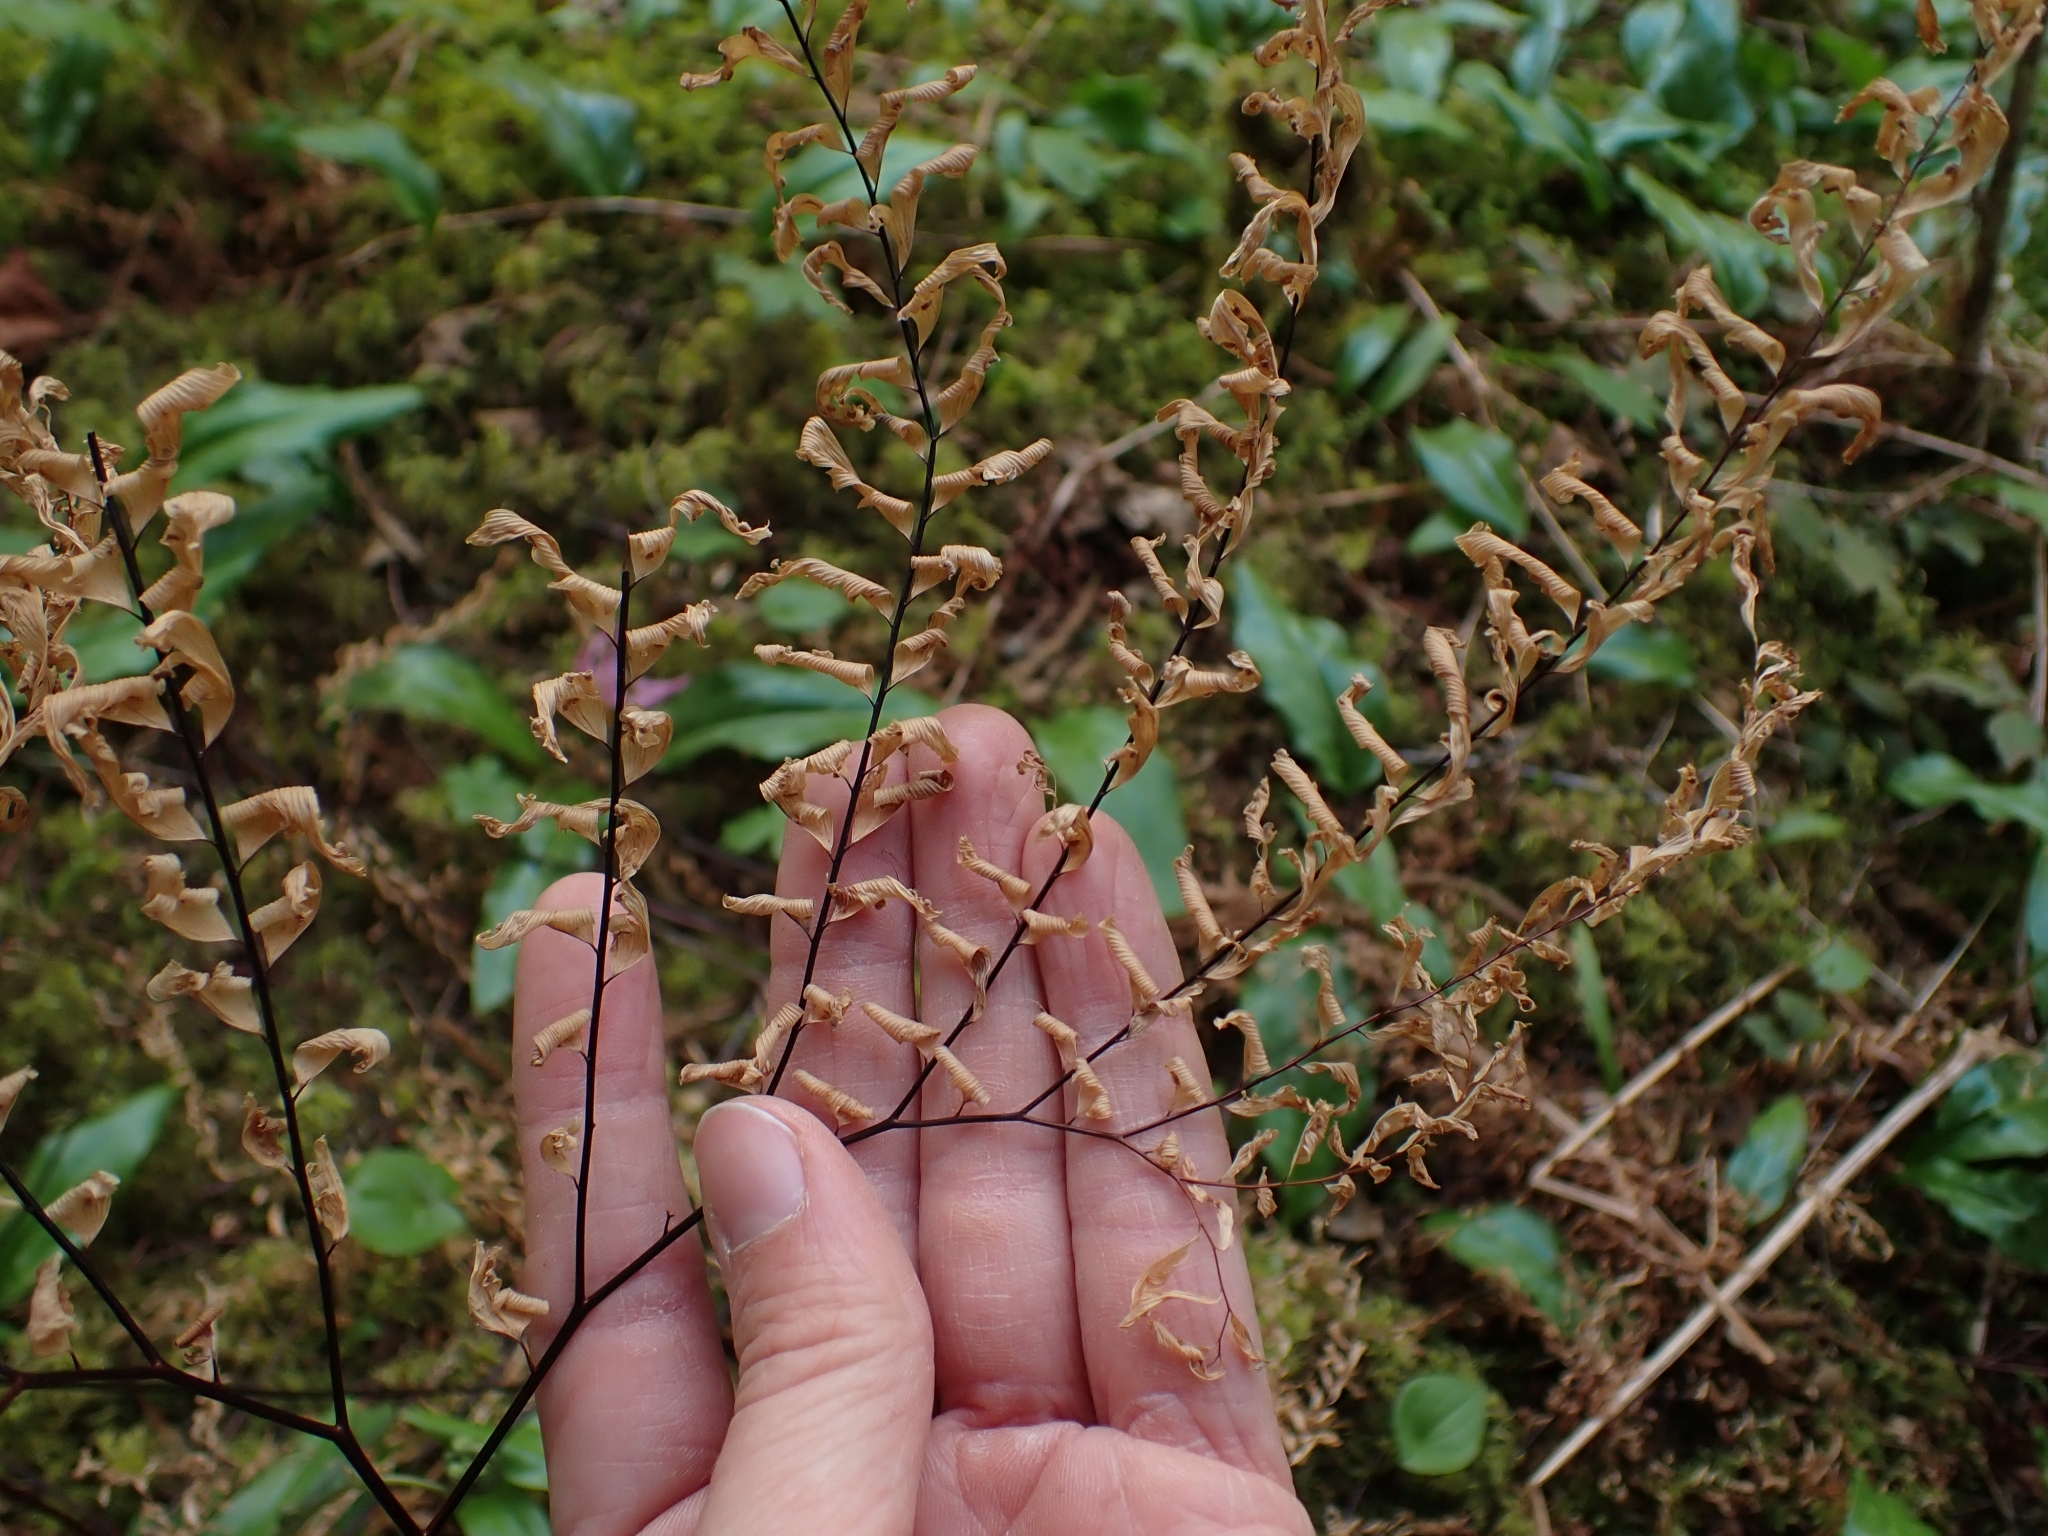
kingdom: Plantae
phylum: Tracheophyta
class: Polypodiopsida
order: Polypodiales
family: Pteridaceae
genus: Adiantum
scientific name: Adiantum aleuticum
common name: Aleutian maidenhair fern
